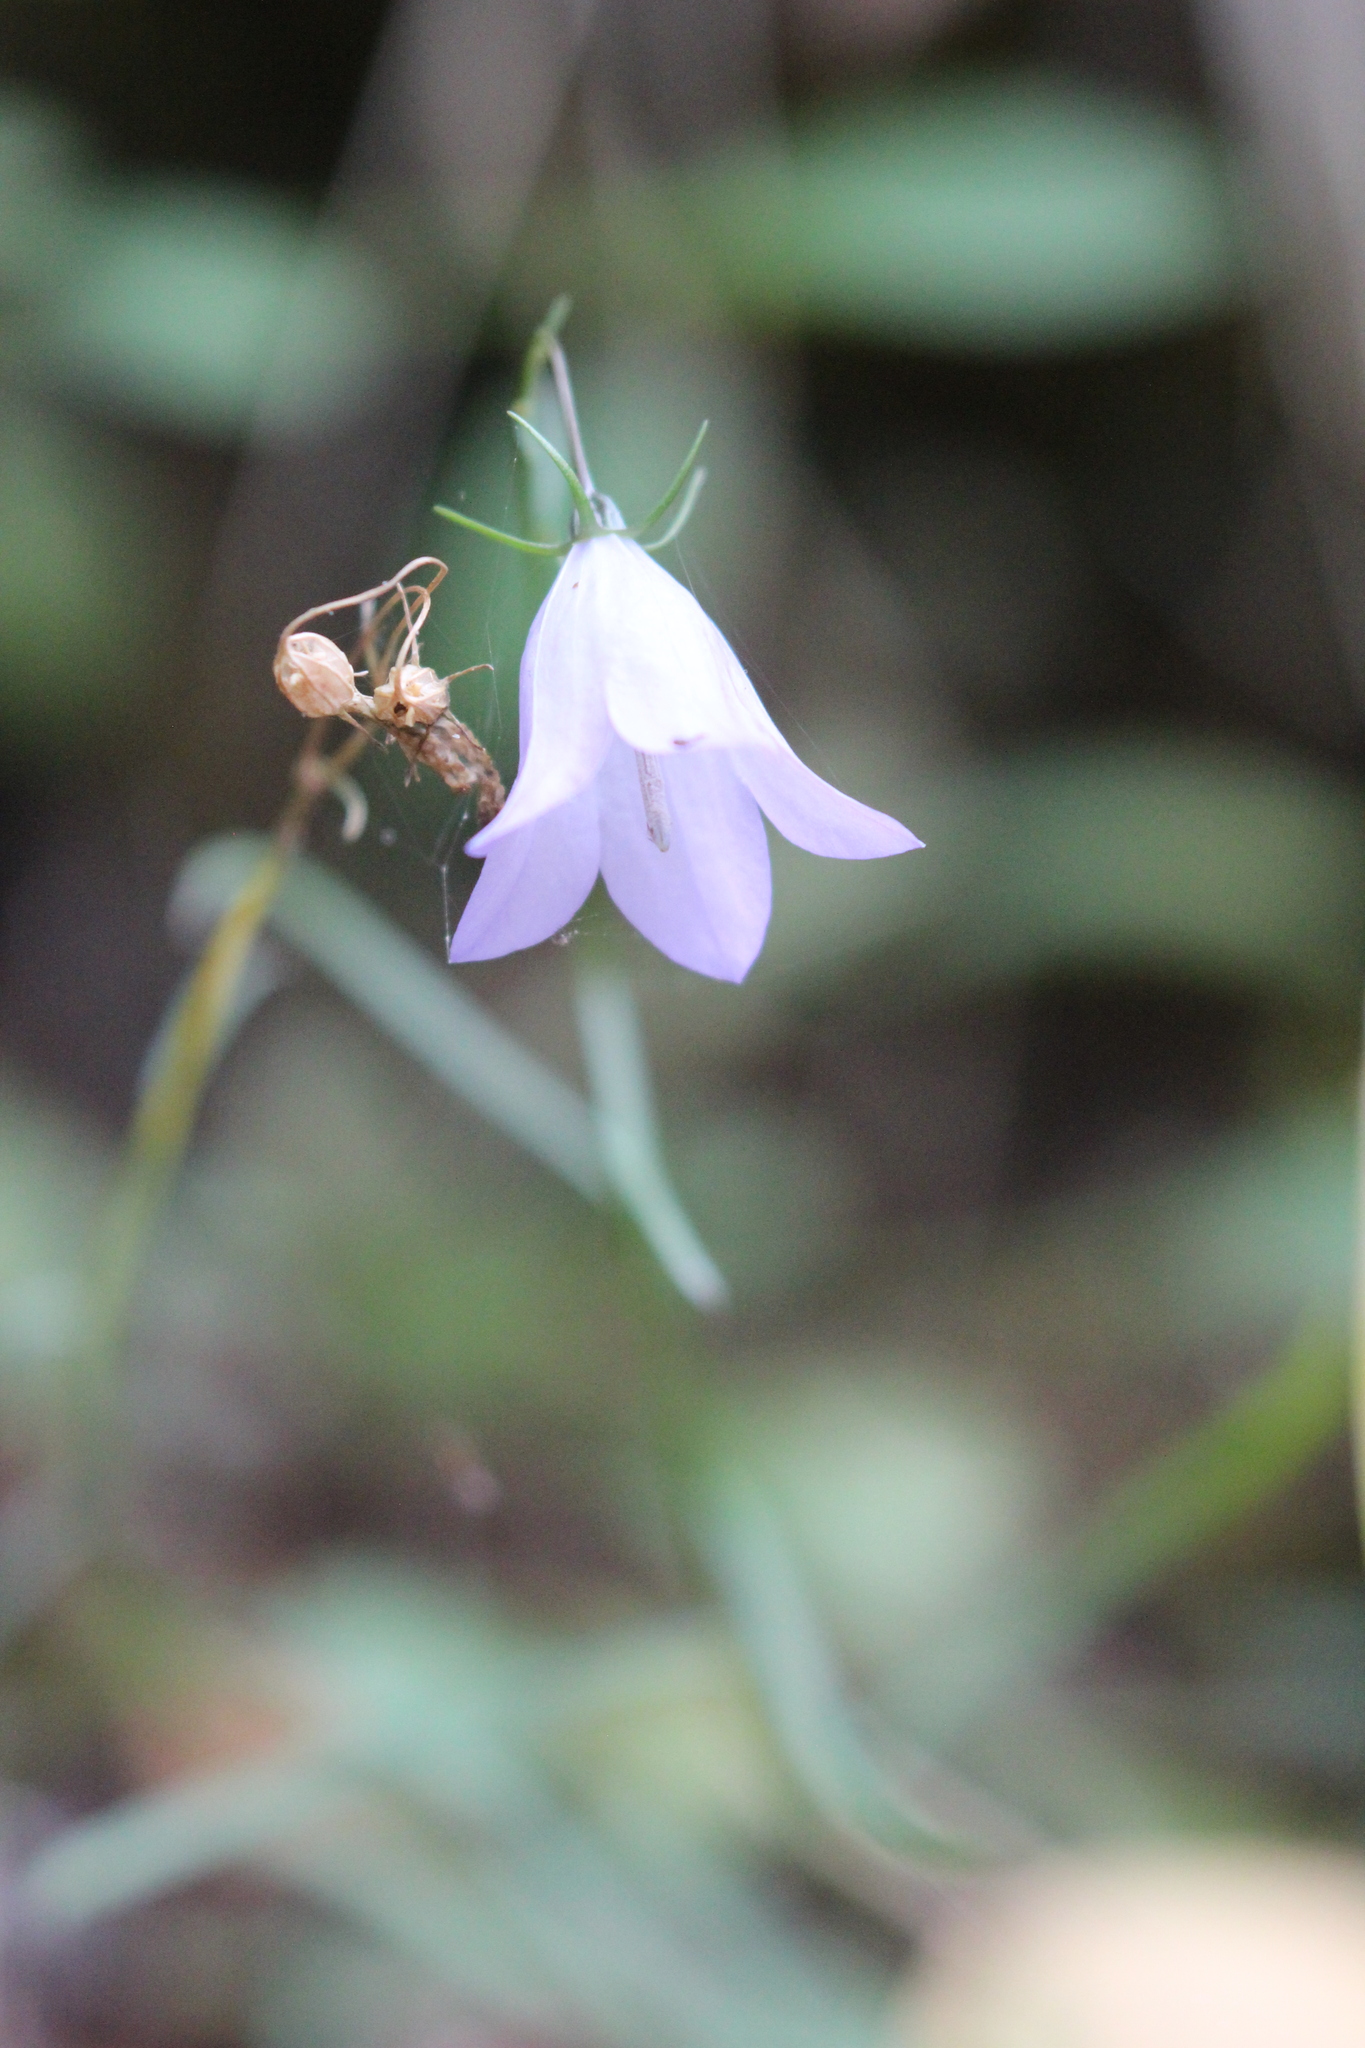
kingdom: Plantae
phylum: Tracheophyta
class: Magnoliopsida
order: Asterales
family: Campanulaceae
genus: Campanula
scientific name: Campanula alaskana
